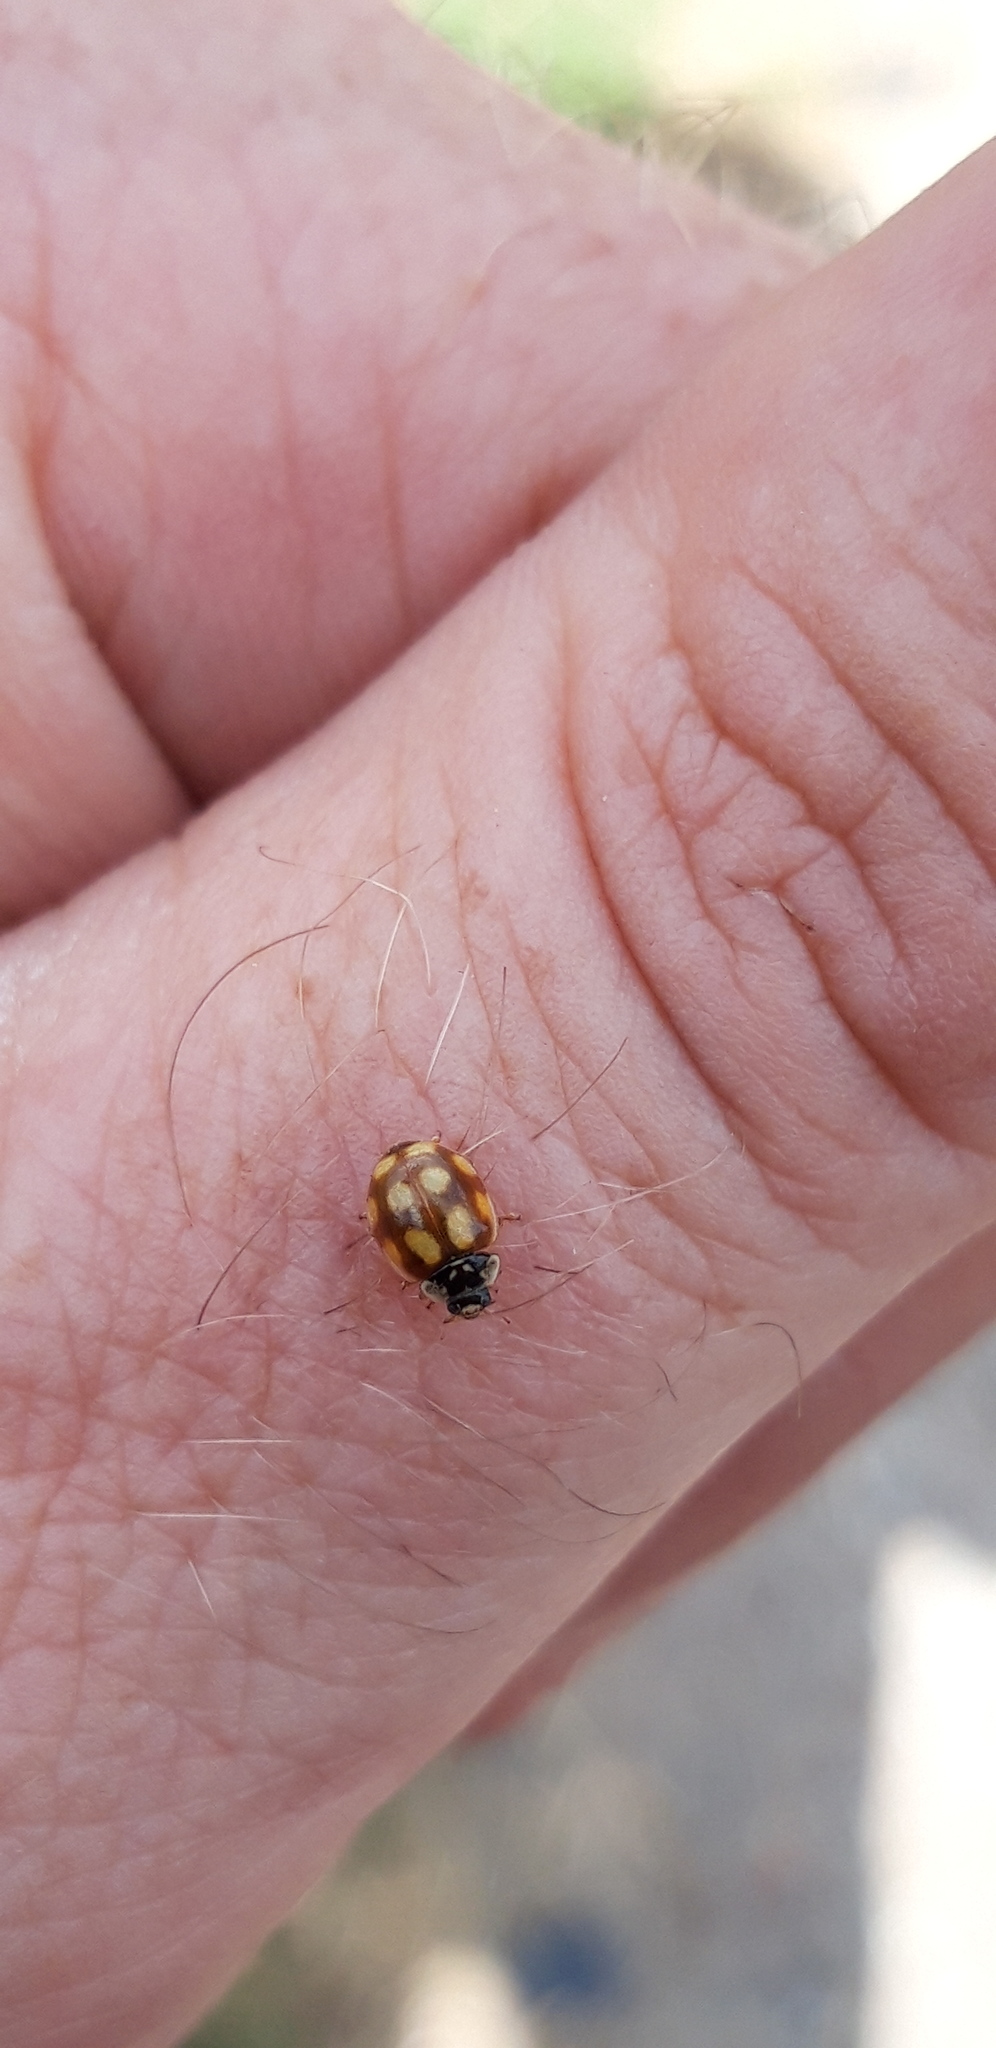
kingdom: Animalia
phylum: Arthropoda
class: Insecta
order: Coleoptera
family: Coccinellidae
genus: Adalia
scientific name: Adalia decempunctata
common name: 10-spot ladybird
